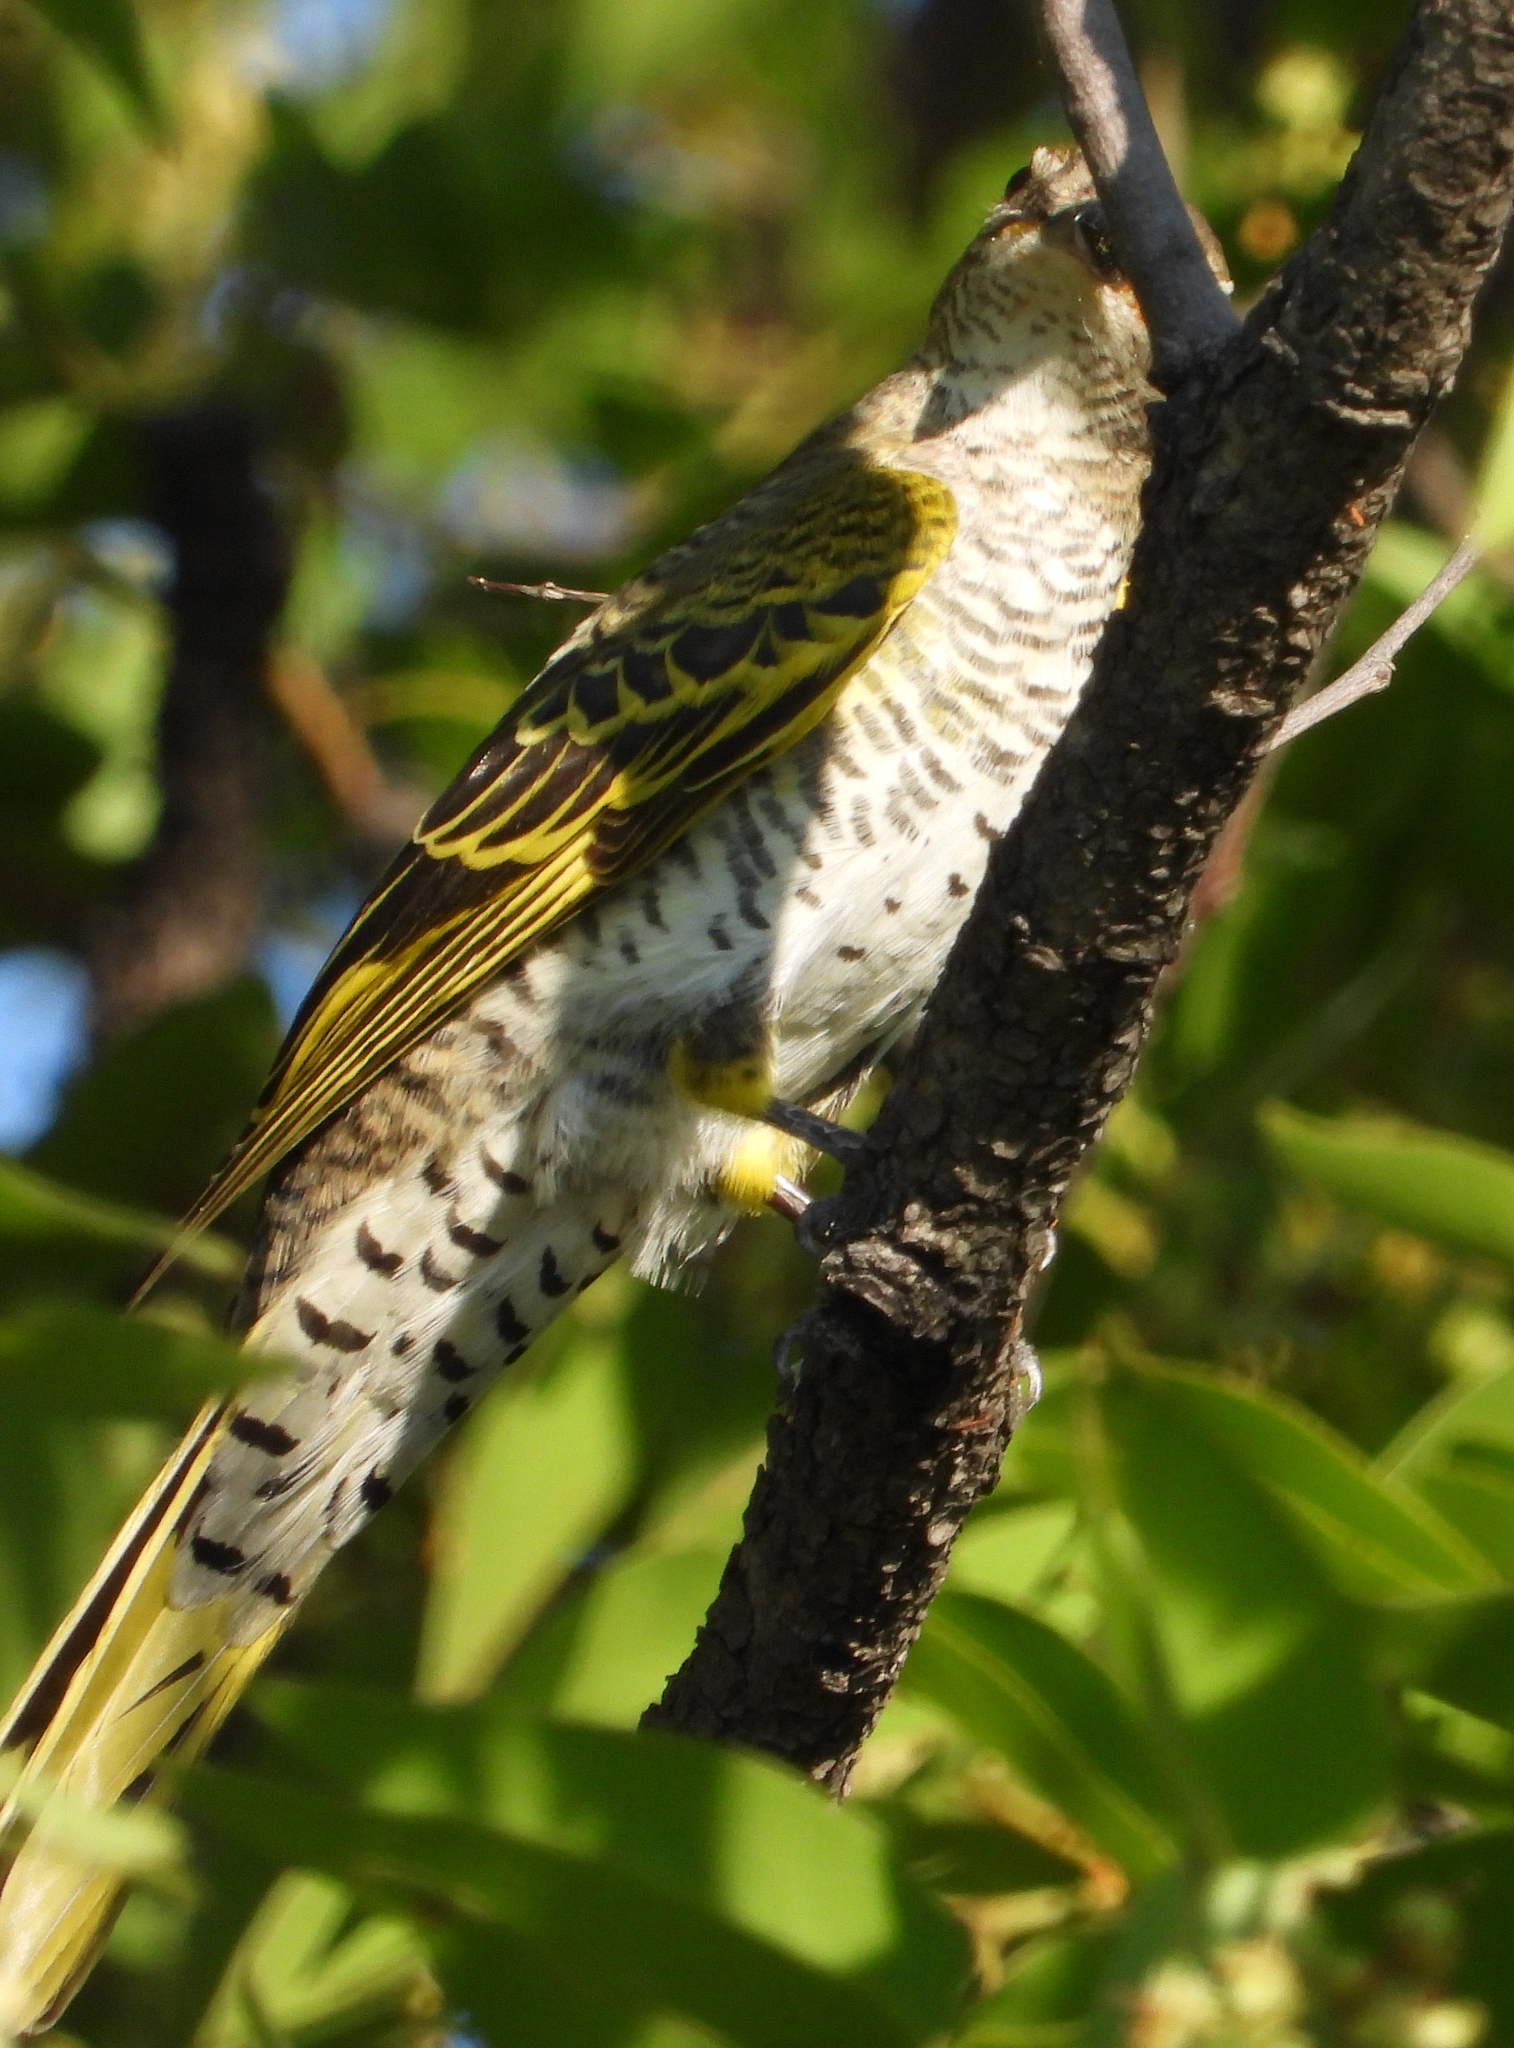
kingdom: Animalia
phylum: Chordata
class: Aves
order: Passeriformes
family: Campephagidae
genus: Campephaga
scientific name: Campephaga flava
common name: Black cuckooshrike
